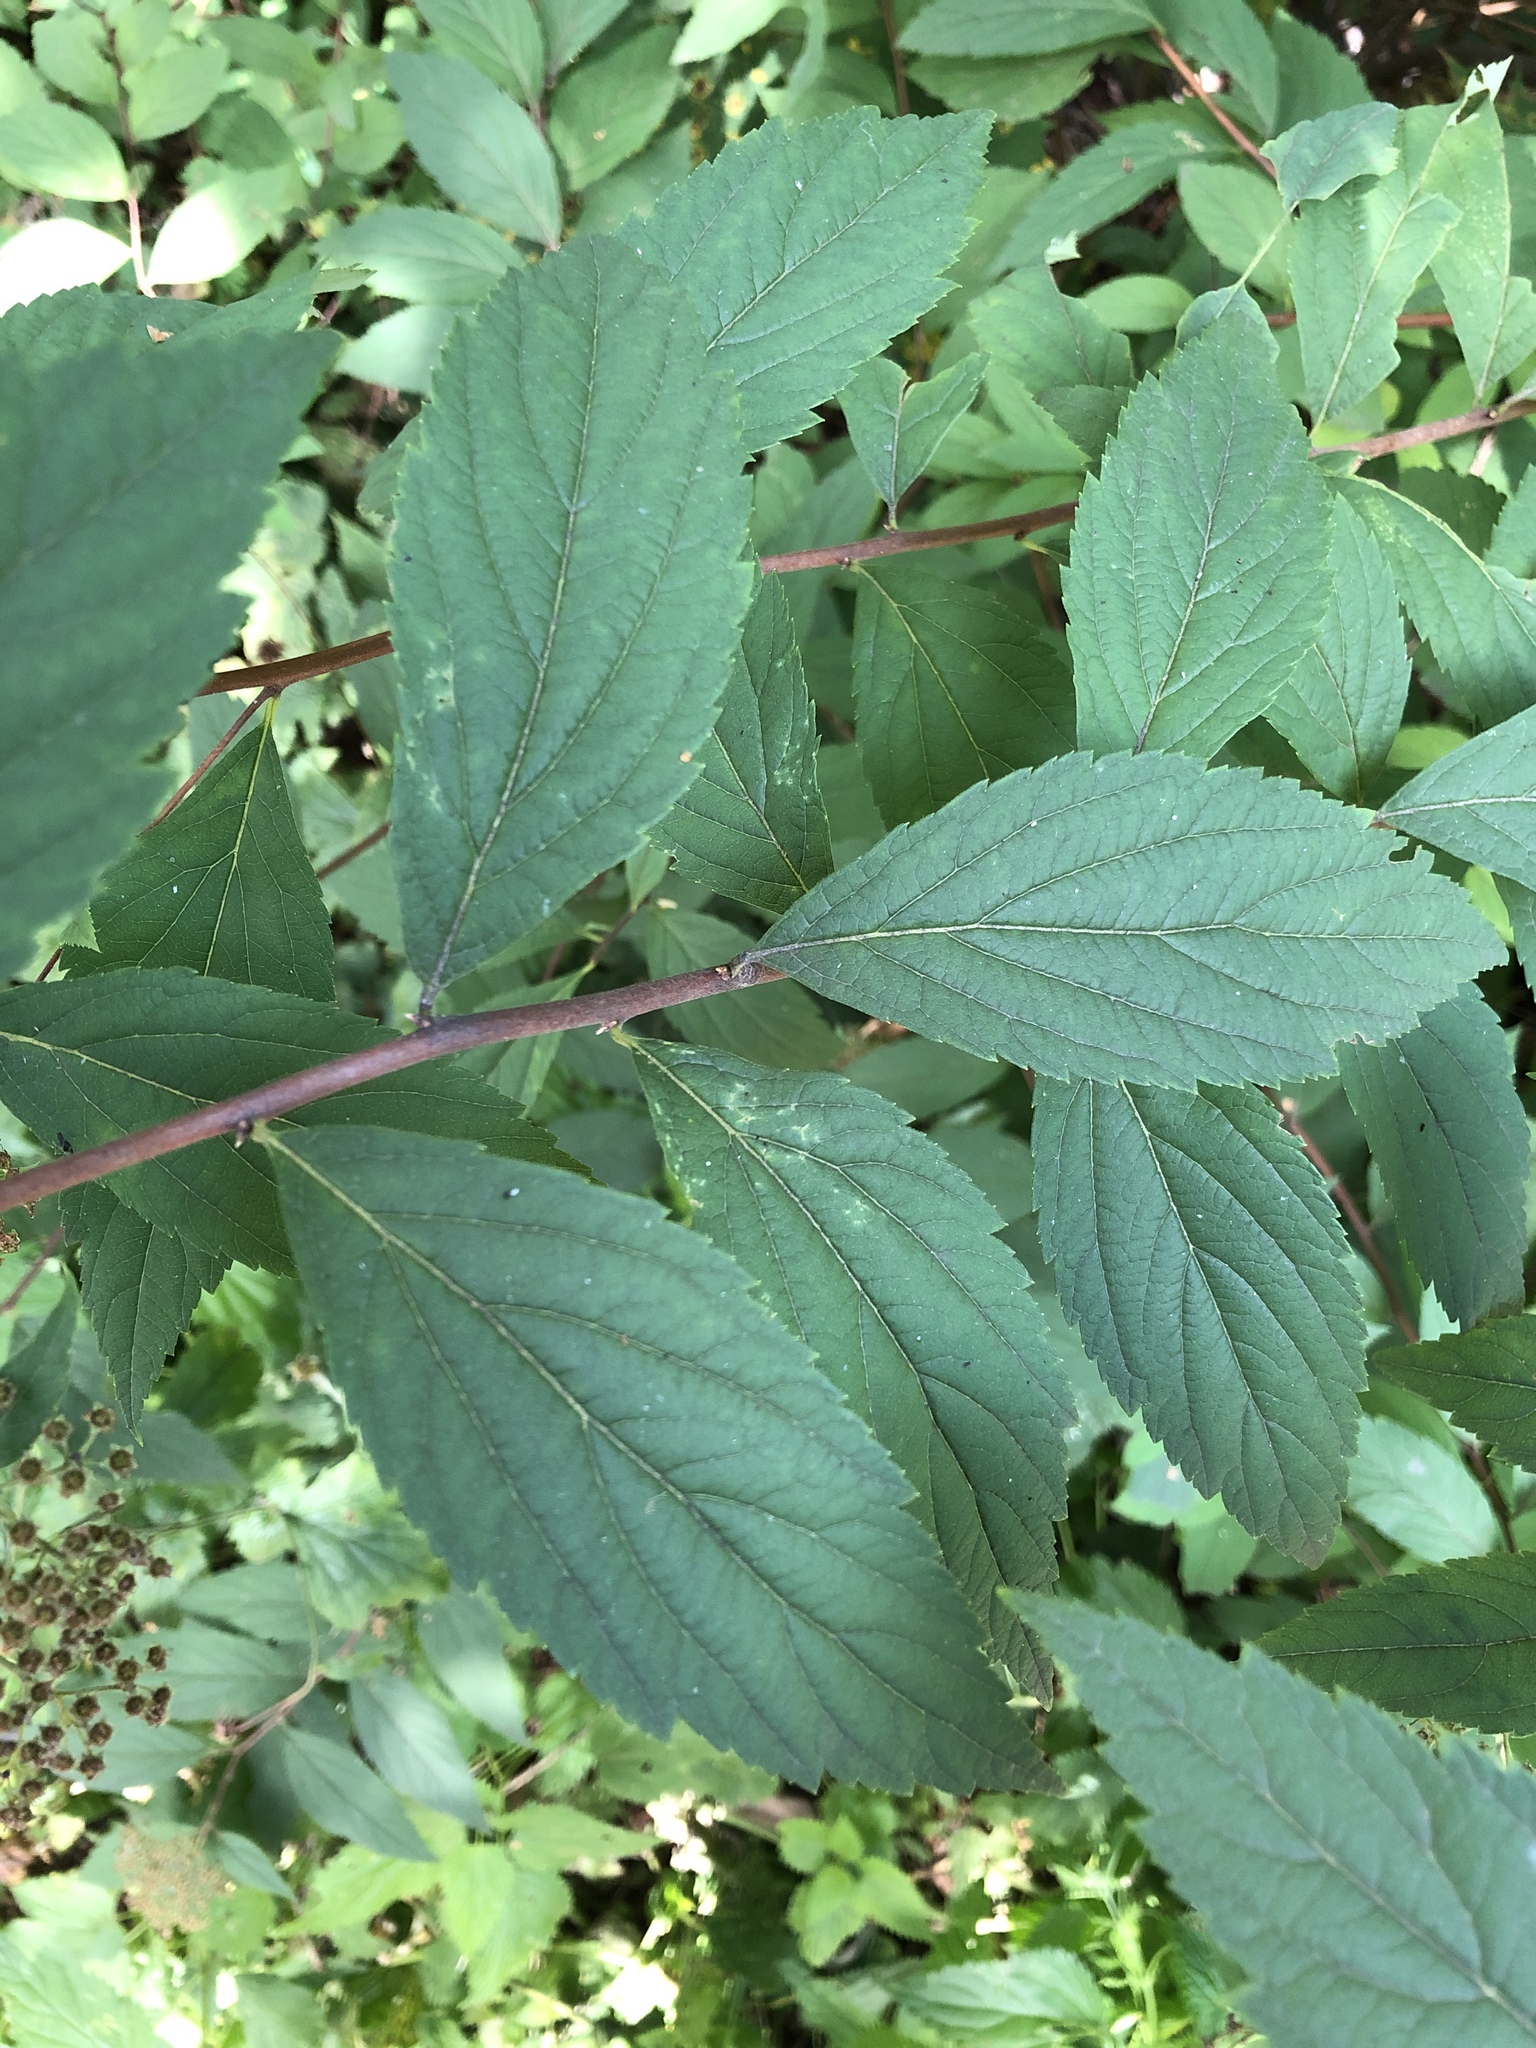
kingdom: Plantae
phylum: Tracheophyta
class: Magnoliopsida
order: Rosales
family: Rosaceae
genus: Spiraea
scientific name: Spiraea japonica
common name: Japanese spiraea
